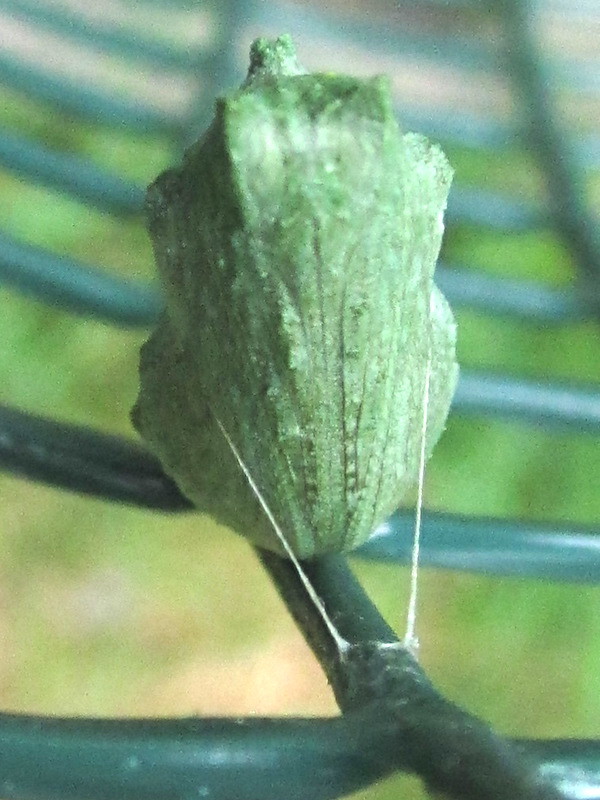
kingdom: Animalia
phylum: Arthropoda
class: Insecta
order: Lepidoptera
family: Papilionidae
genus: Papilio
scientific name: Papilio polyxenes
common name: Black swallowtail
